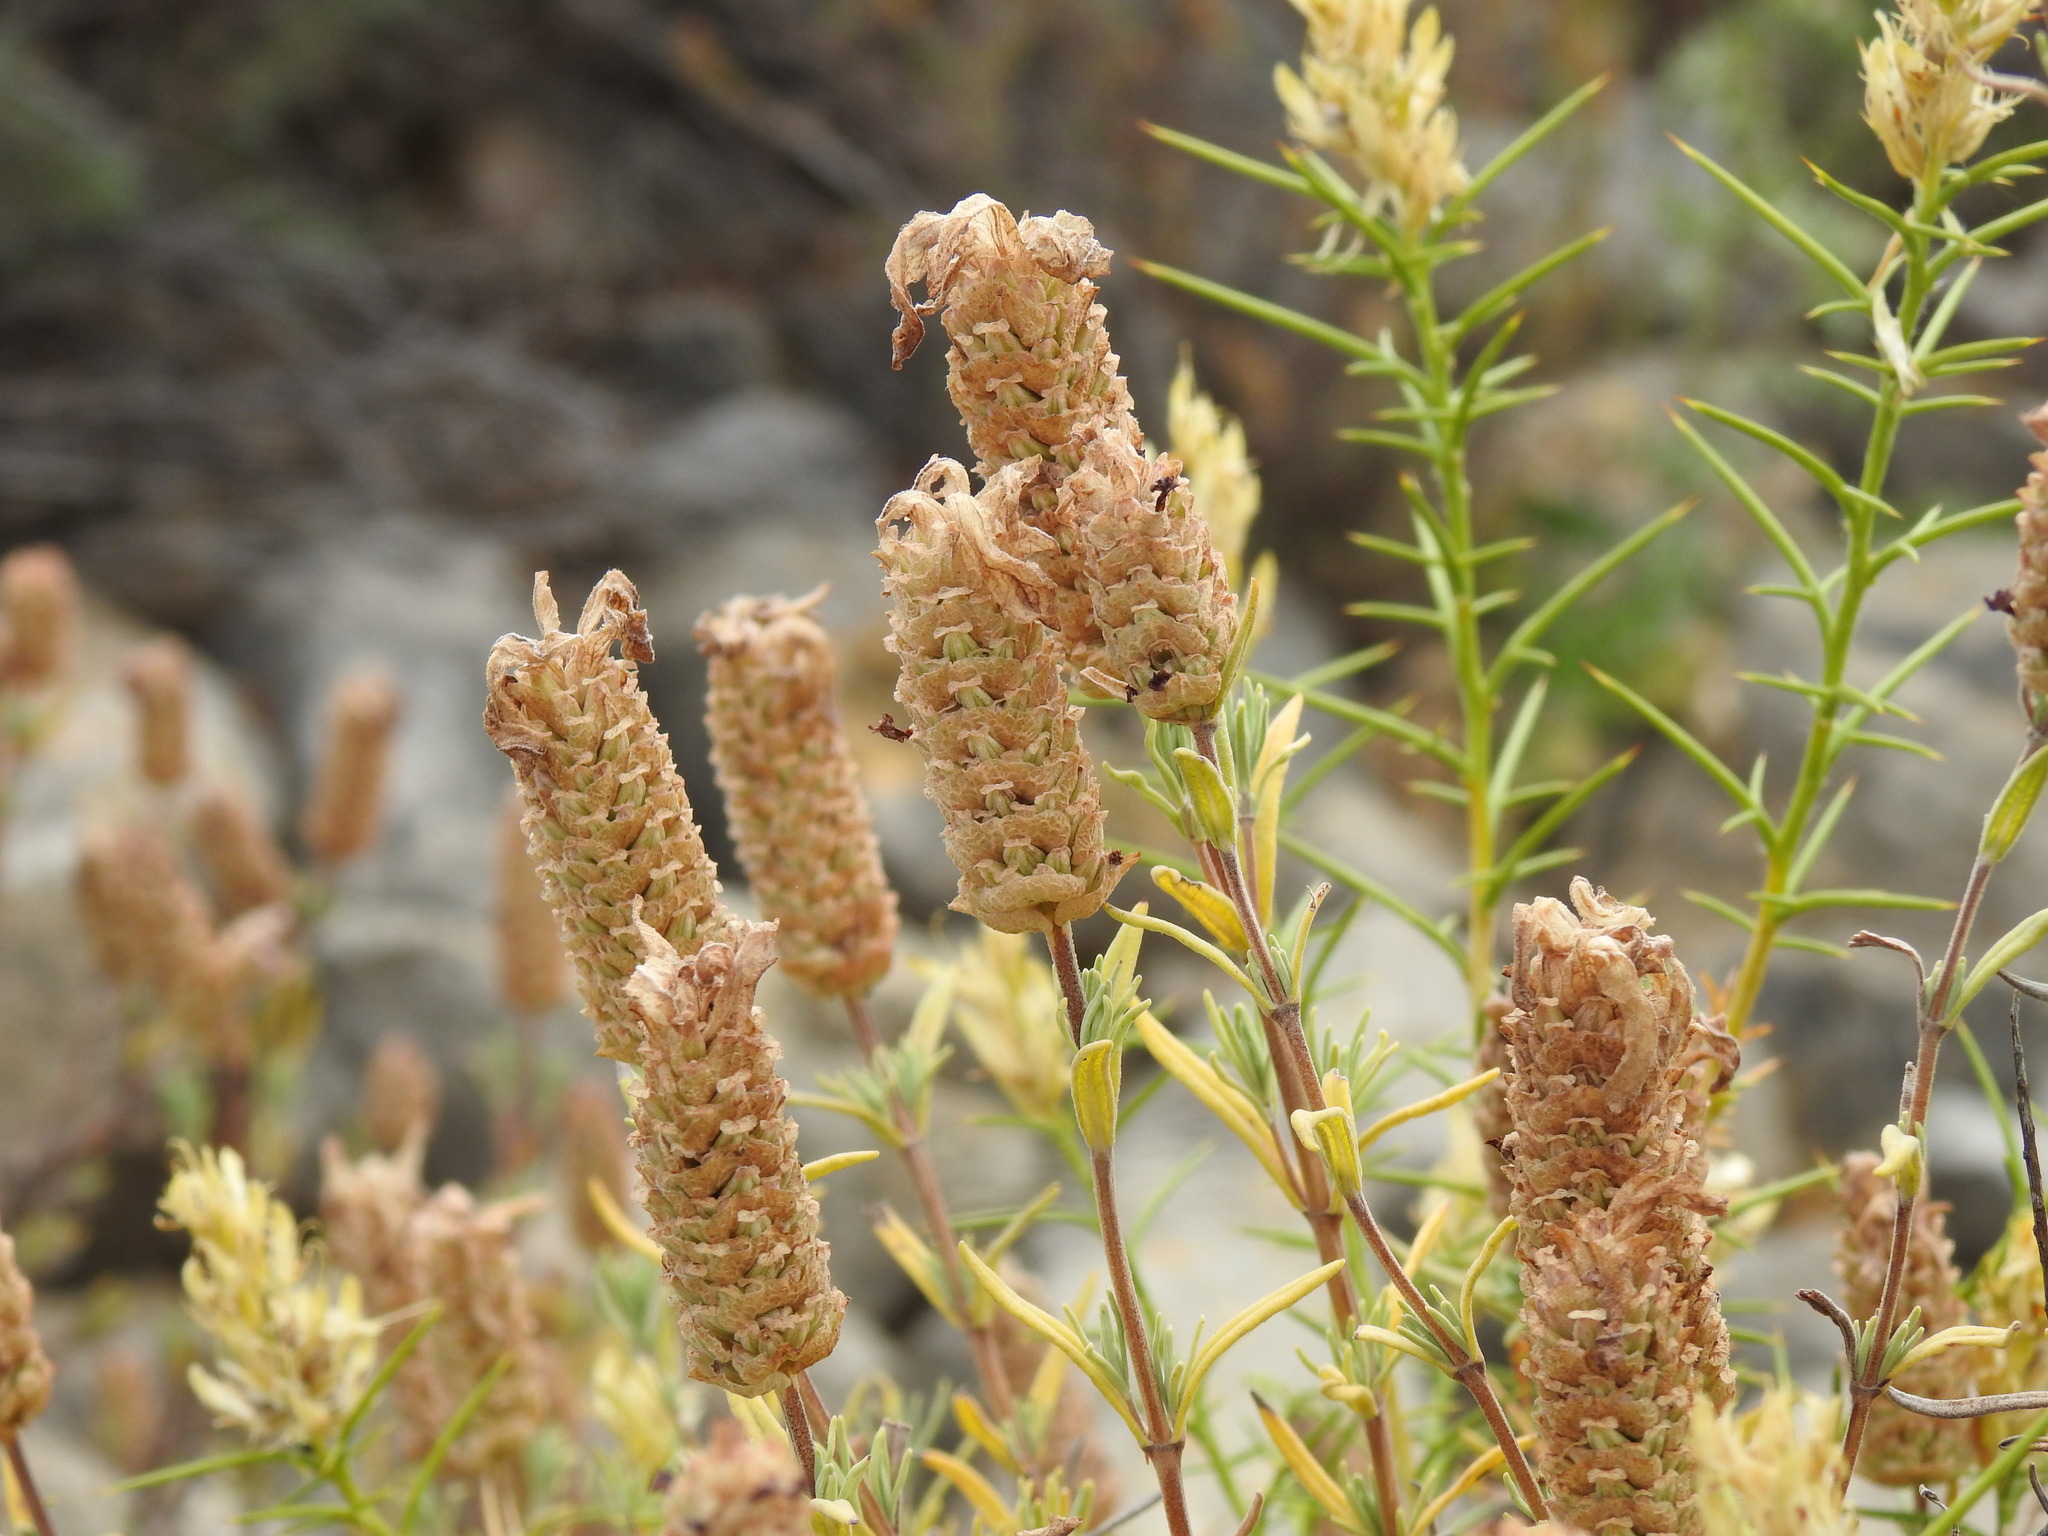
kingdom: Plantae
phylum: Tracheophyta
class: Magnoliopsida
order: Lamiales
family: Lamiaceae
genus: Lavandula
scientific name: Lavandula stoechas
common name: French lavender
